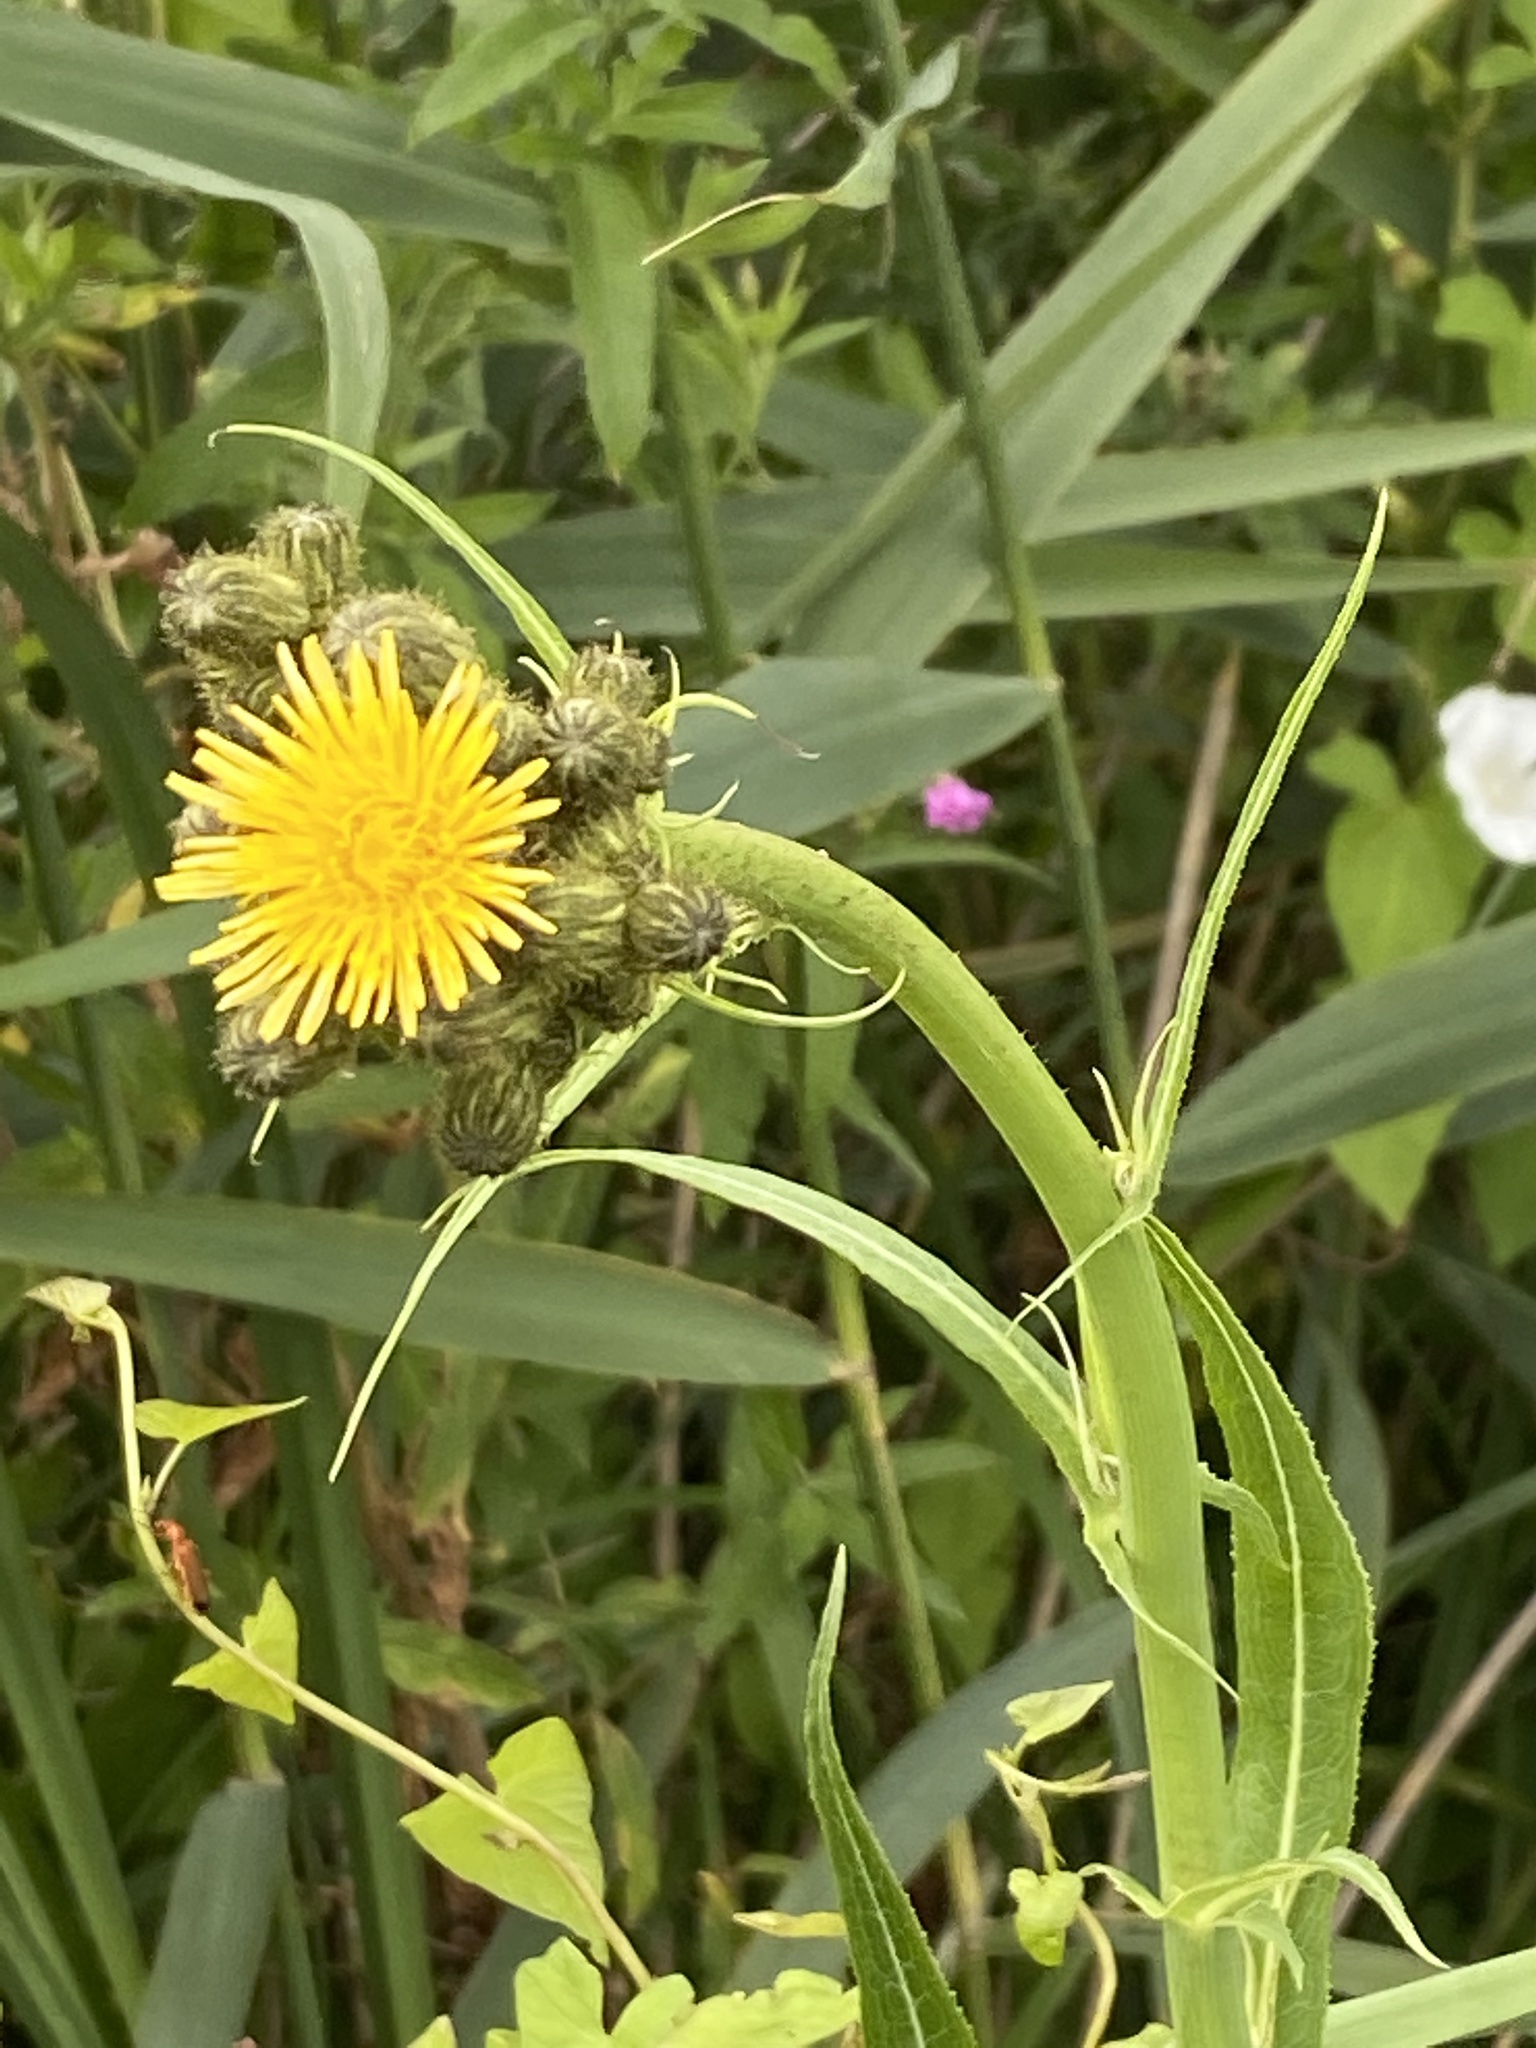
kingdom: Plantae
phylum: Tracheophyta
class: Magnoliopsida
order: Asterales
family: Asteraceae
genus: Sonchus
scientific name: Sonchus palustris
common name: Marsh sow-thistle
